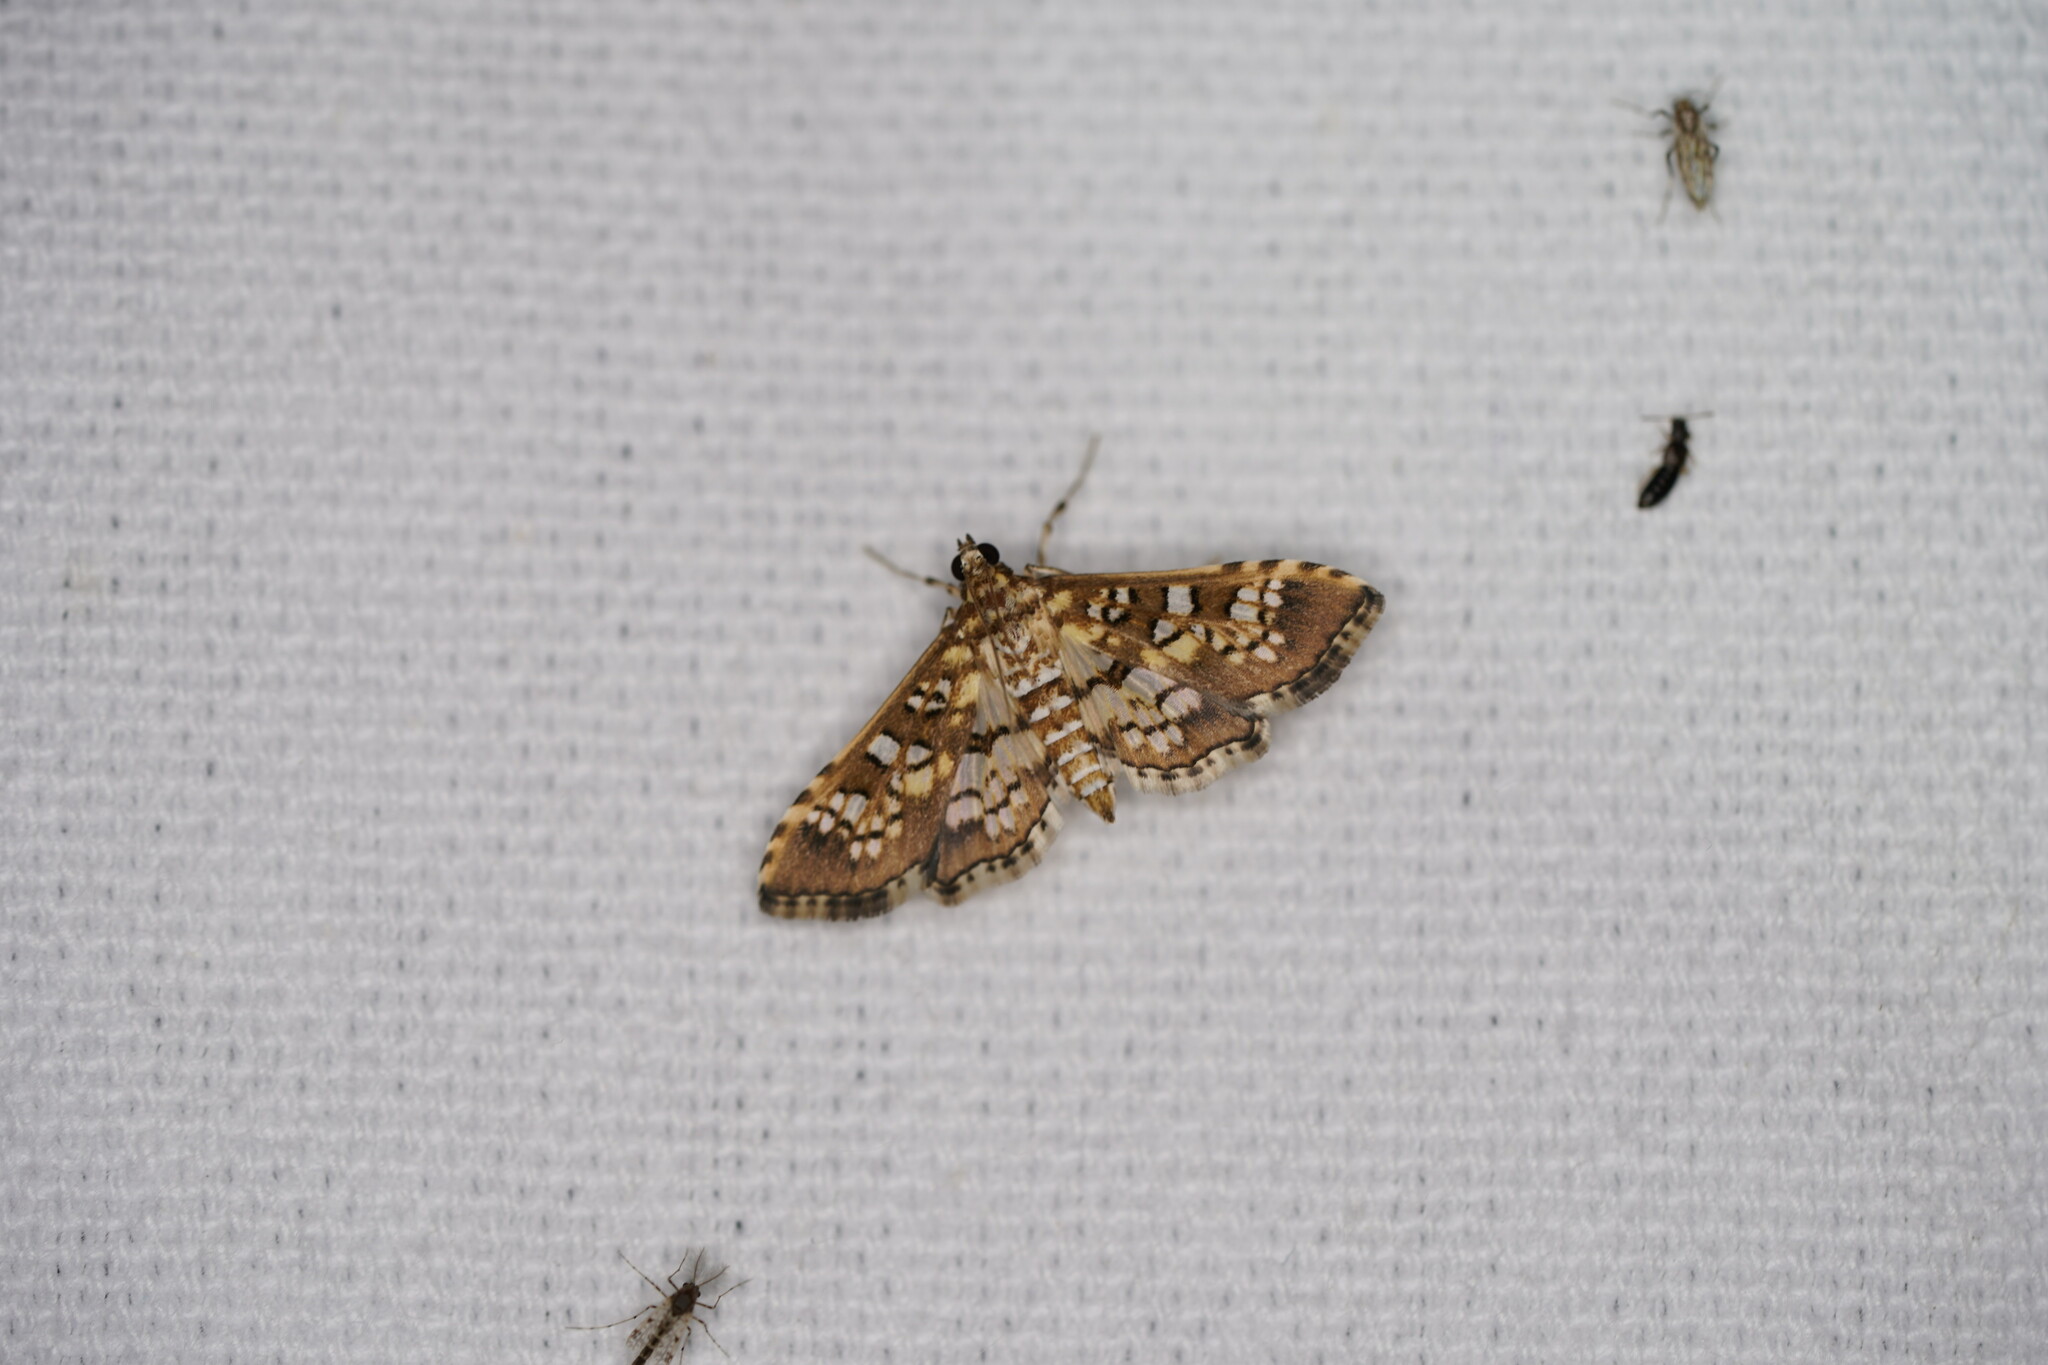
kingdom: Animalia
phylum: Arthropoda
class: Insecta
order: Lepidoptera
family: Crambidae
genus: Samea
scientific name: Samea ecclesialis
